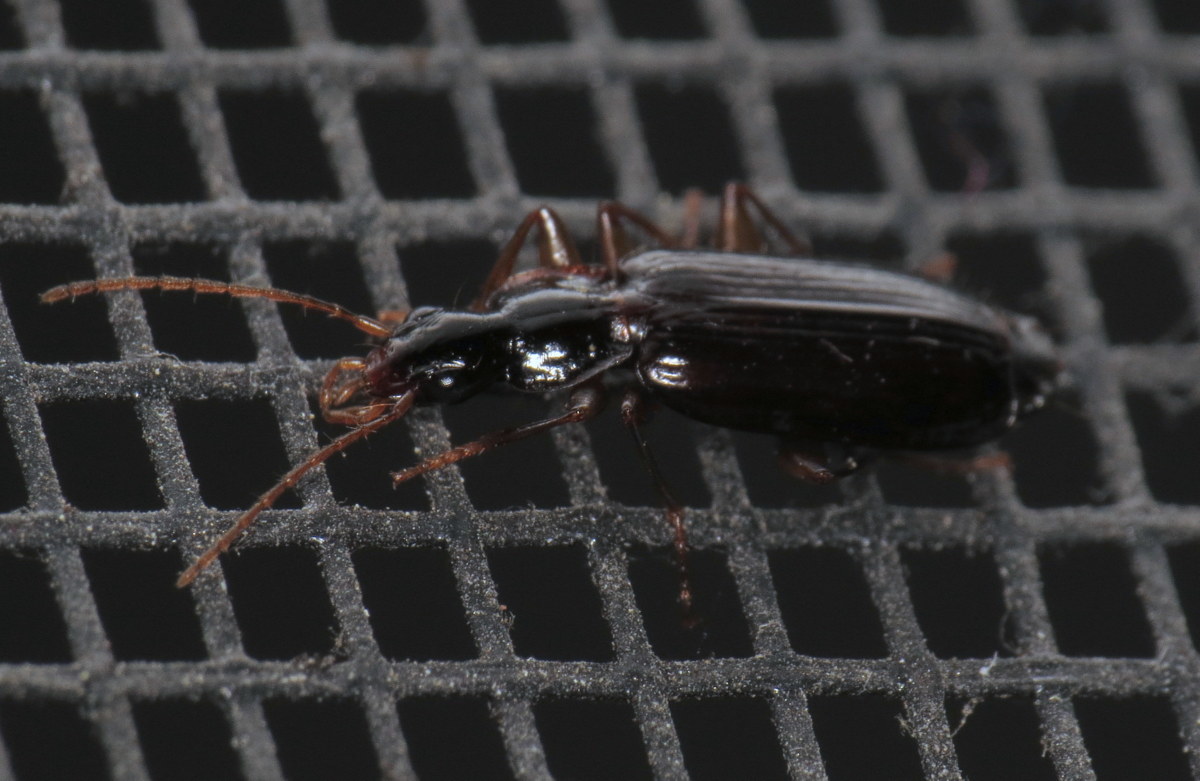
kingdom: Animalia
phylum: Arthropoda
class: Insecta
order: Coleoptera
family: Carabidae
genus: Dromius
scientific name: Dromius piceus
